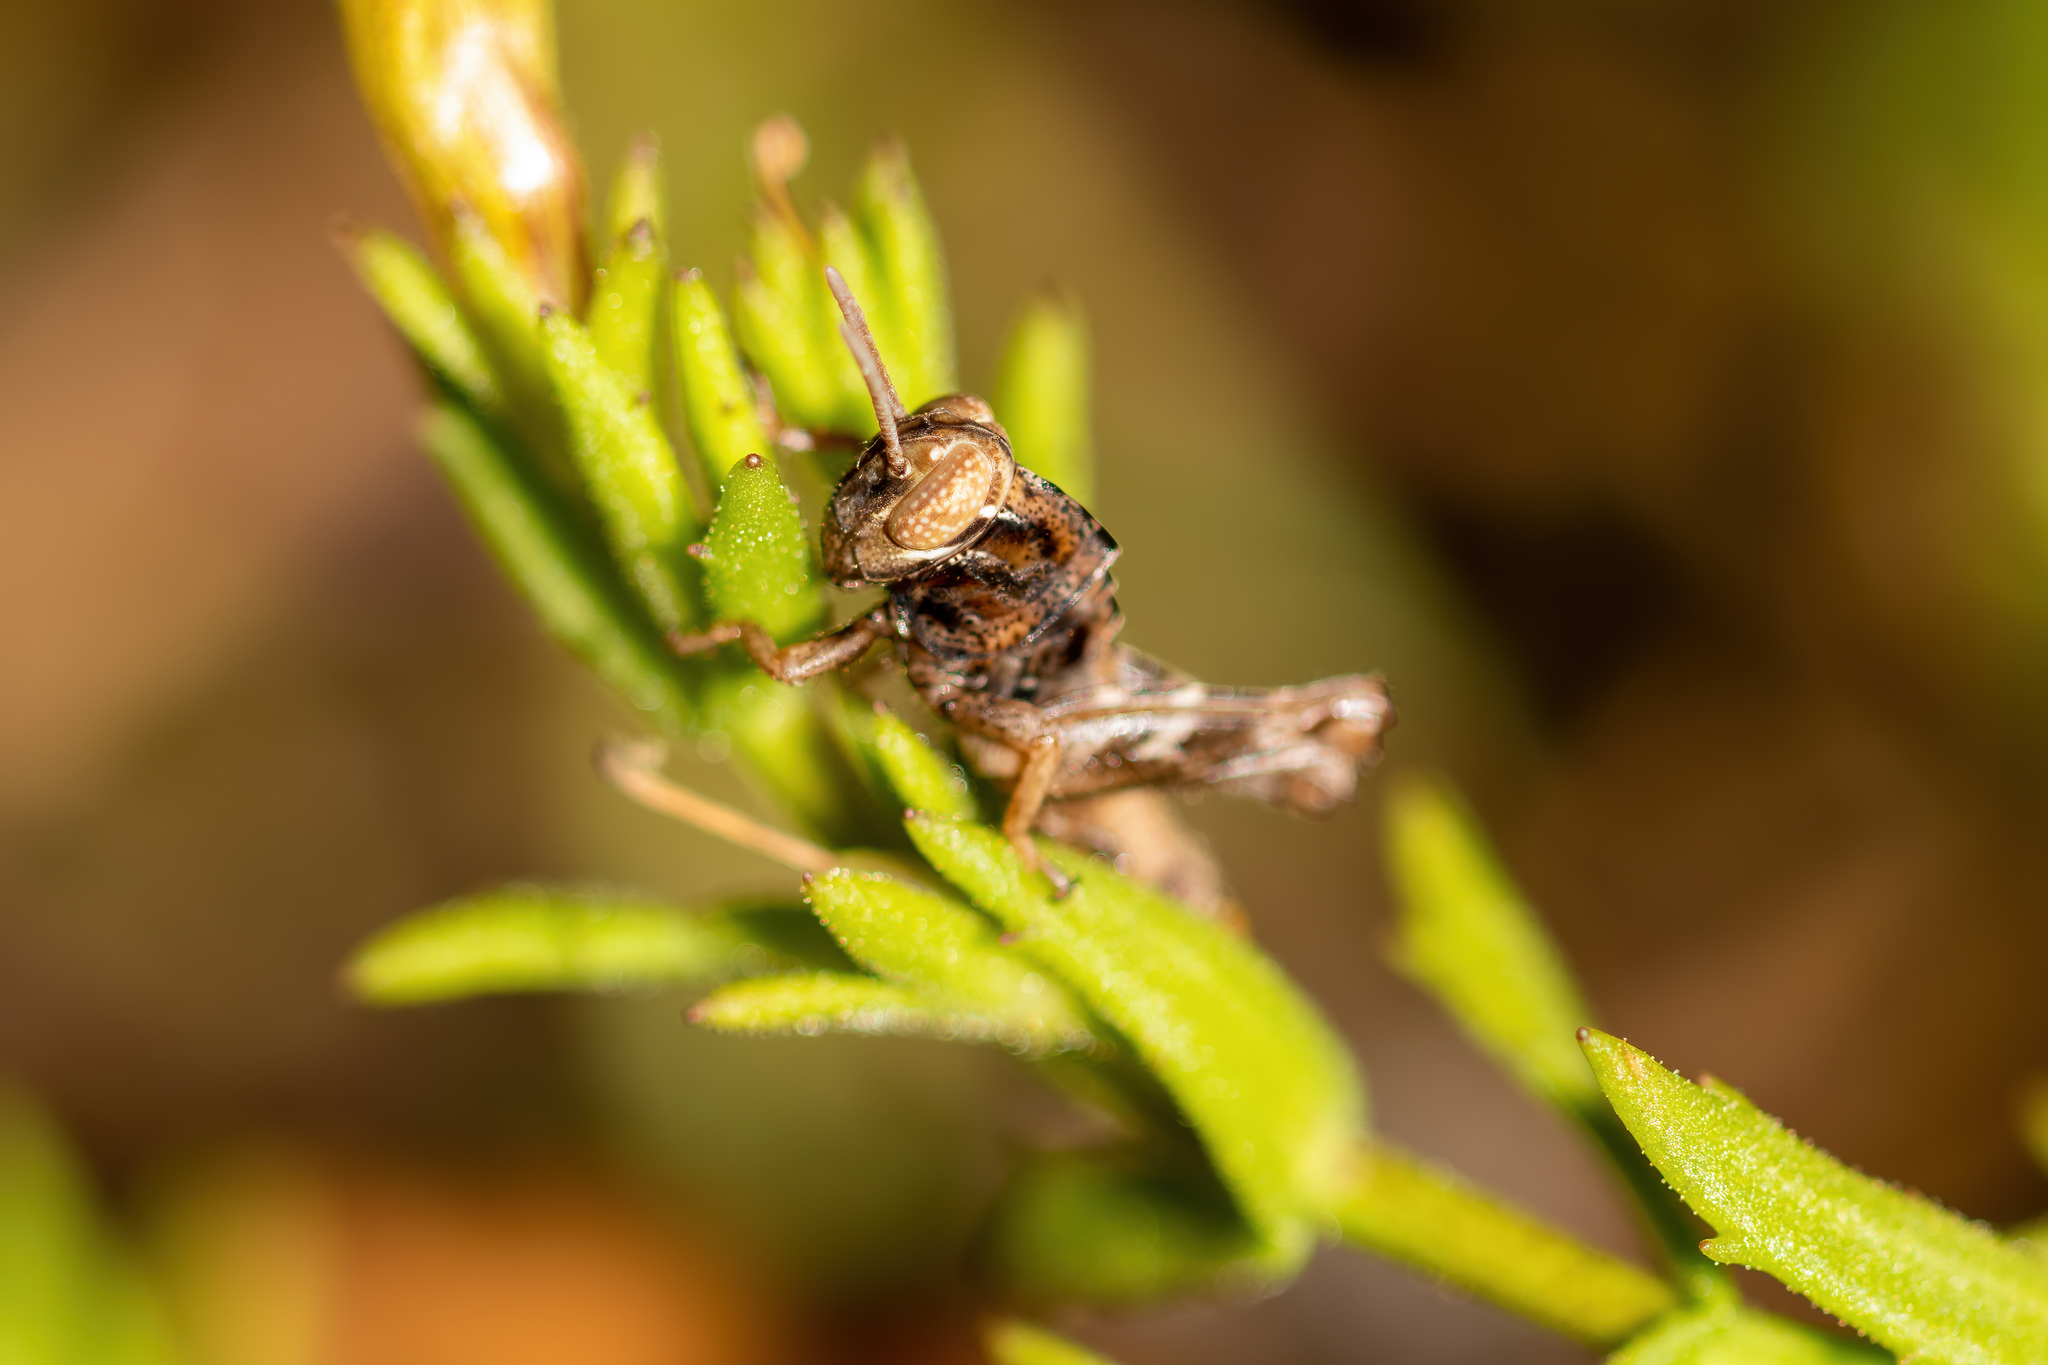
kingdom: Animalia
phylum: Arthropoda
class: Insecta
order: Orthoptera
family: Acrididae
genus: Eotettix
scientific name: Eotettix signatus
